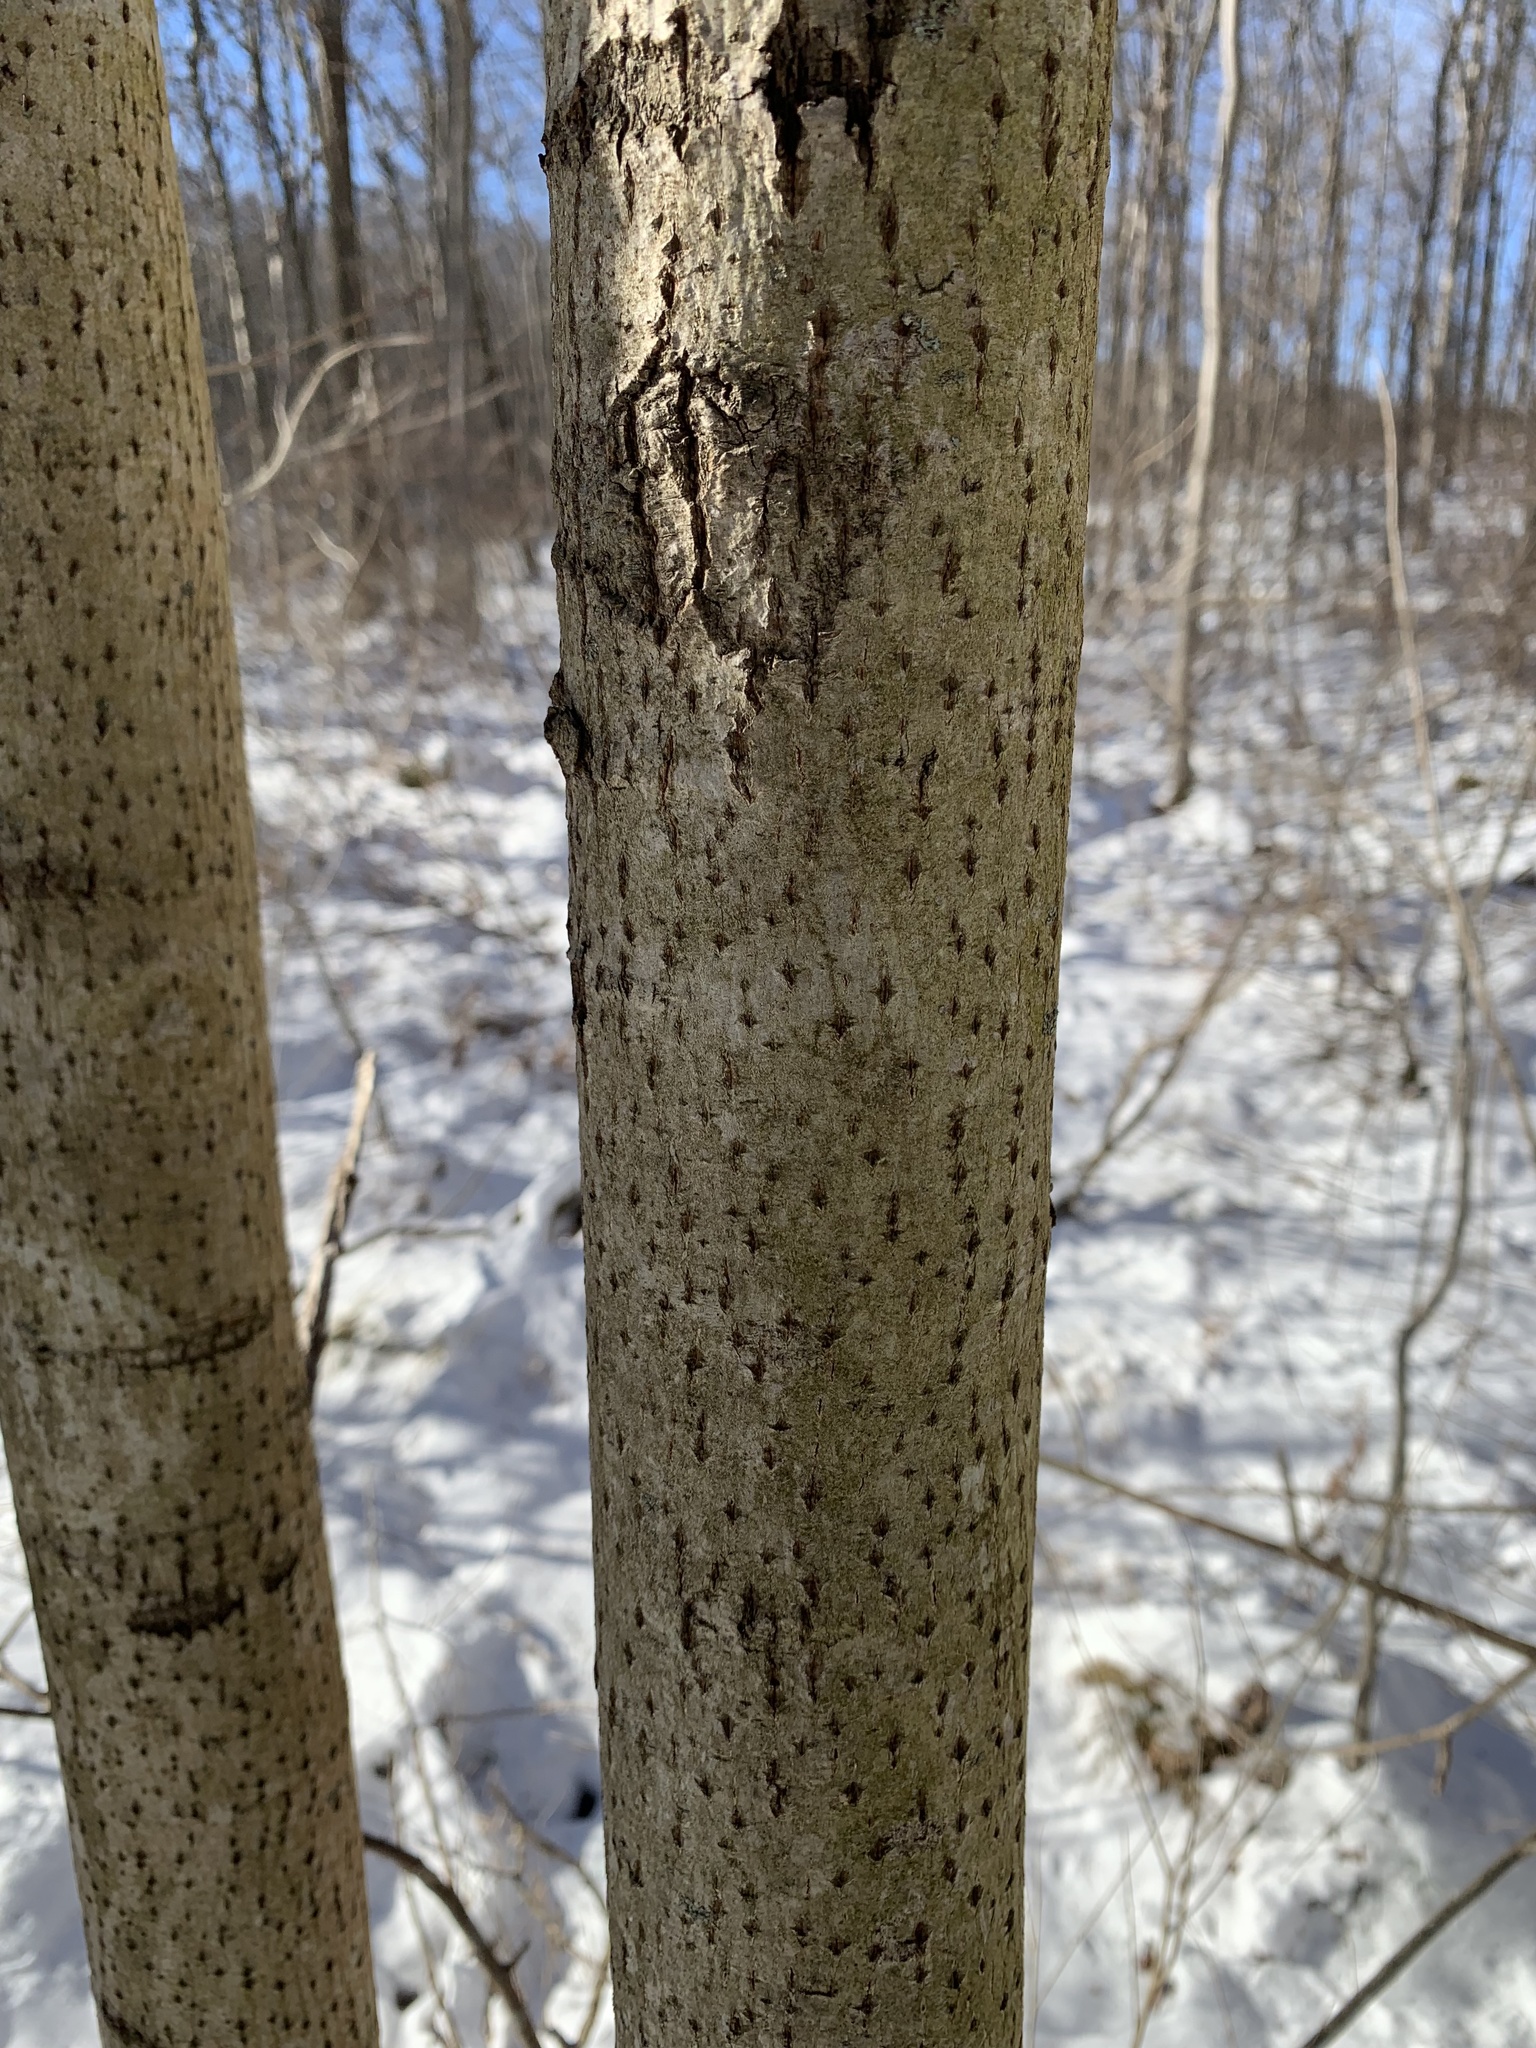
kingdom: Plantae
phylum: Tracheophyta
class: Magnoliopsida
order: Malvales
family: Malvaceae
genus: Tilia
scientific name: Tilia americana
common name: Basswood
